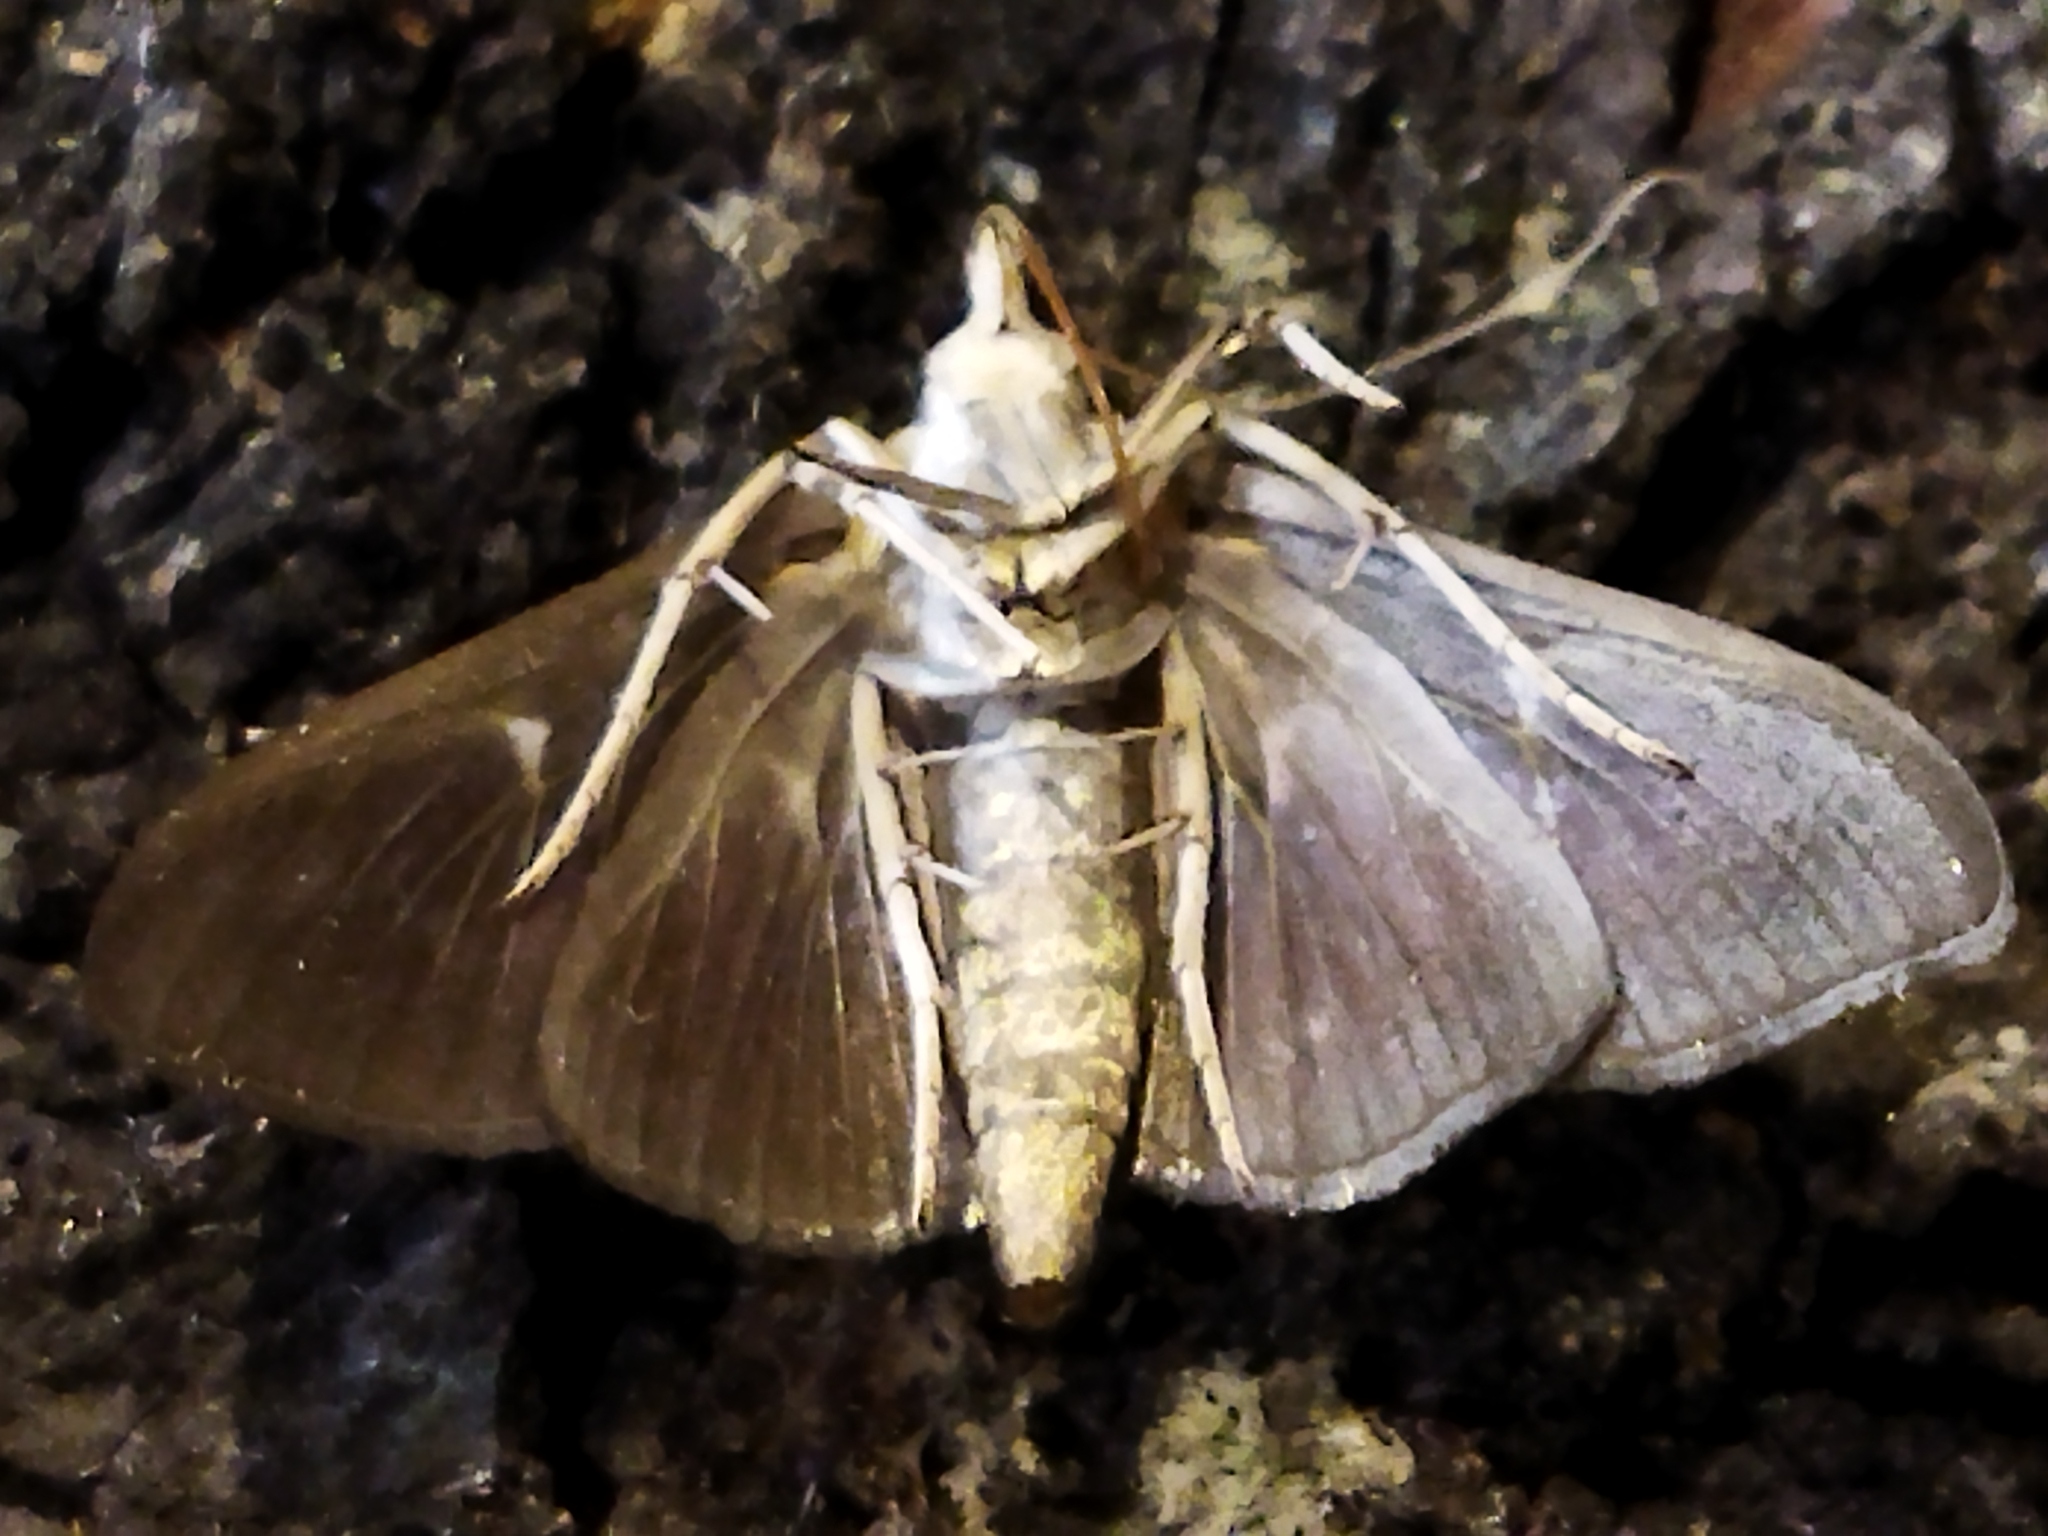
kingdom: Animalia
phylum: Arthropoda
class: Insecta
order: Lepidoptera
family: Crambidae
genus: Cydalima
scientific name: Cydalima perspectalis
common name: Box tree moth
